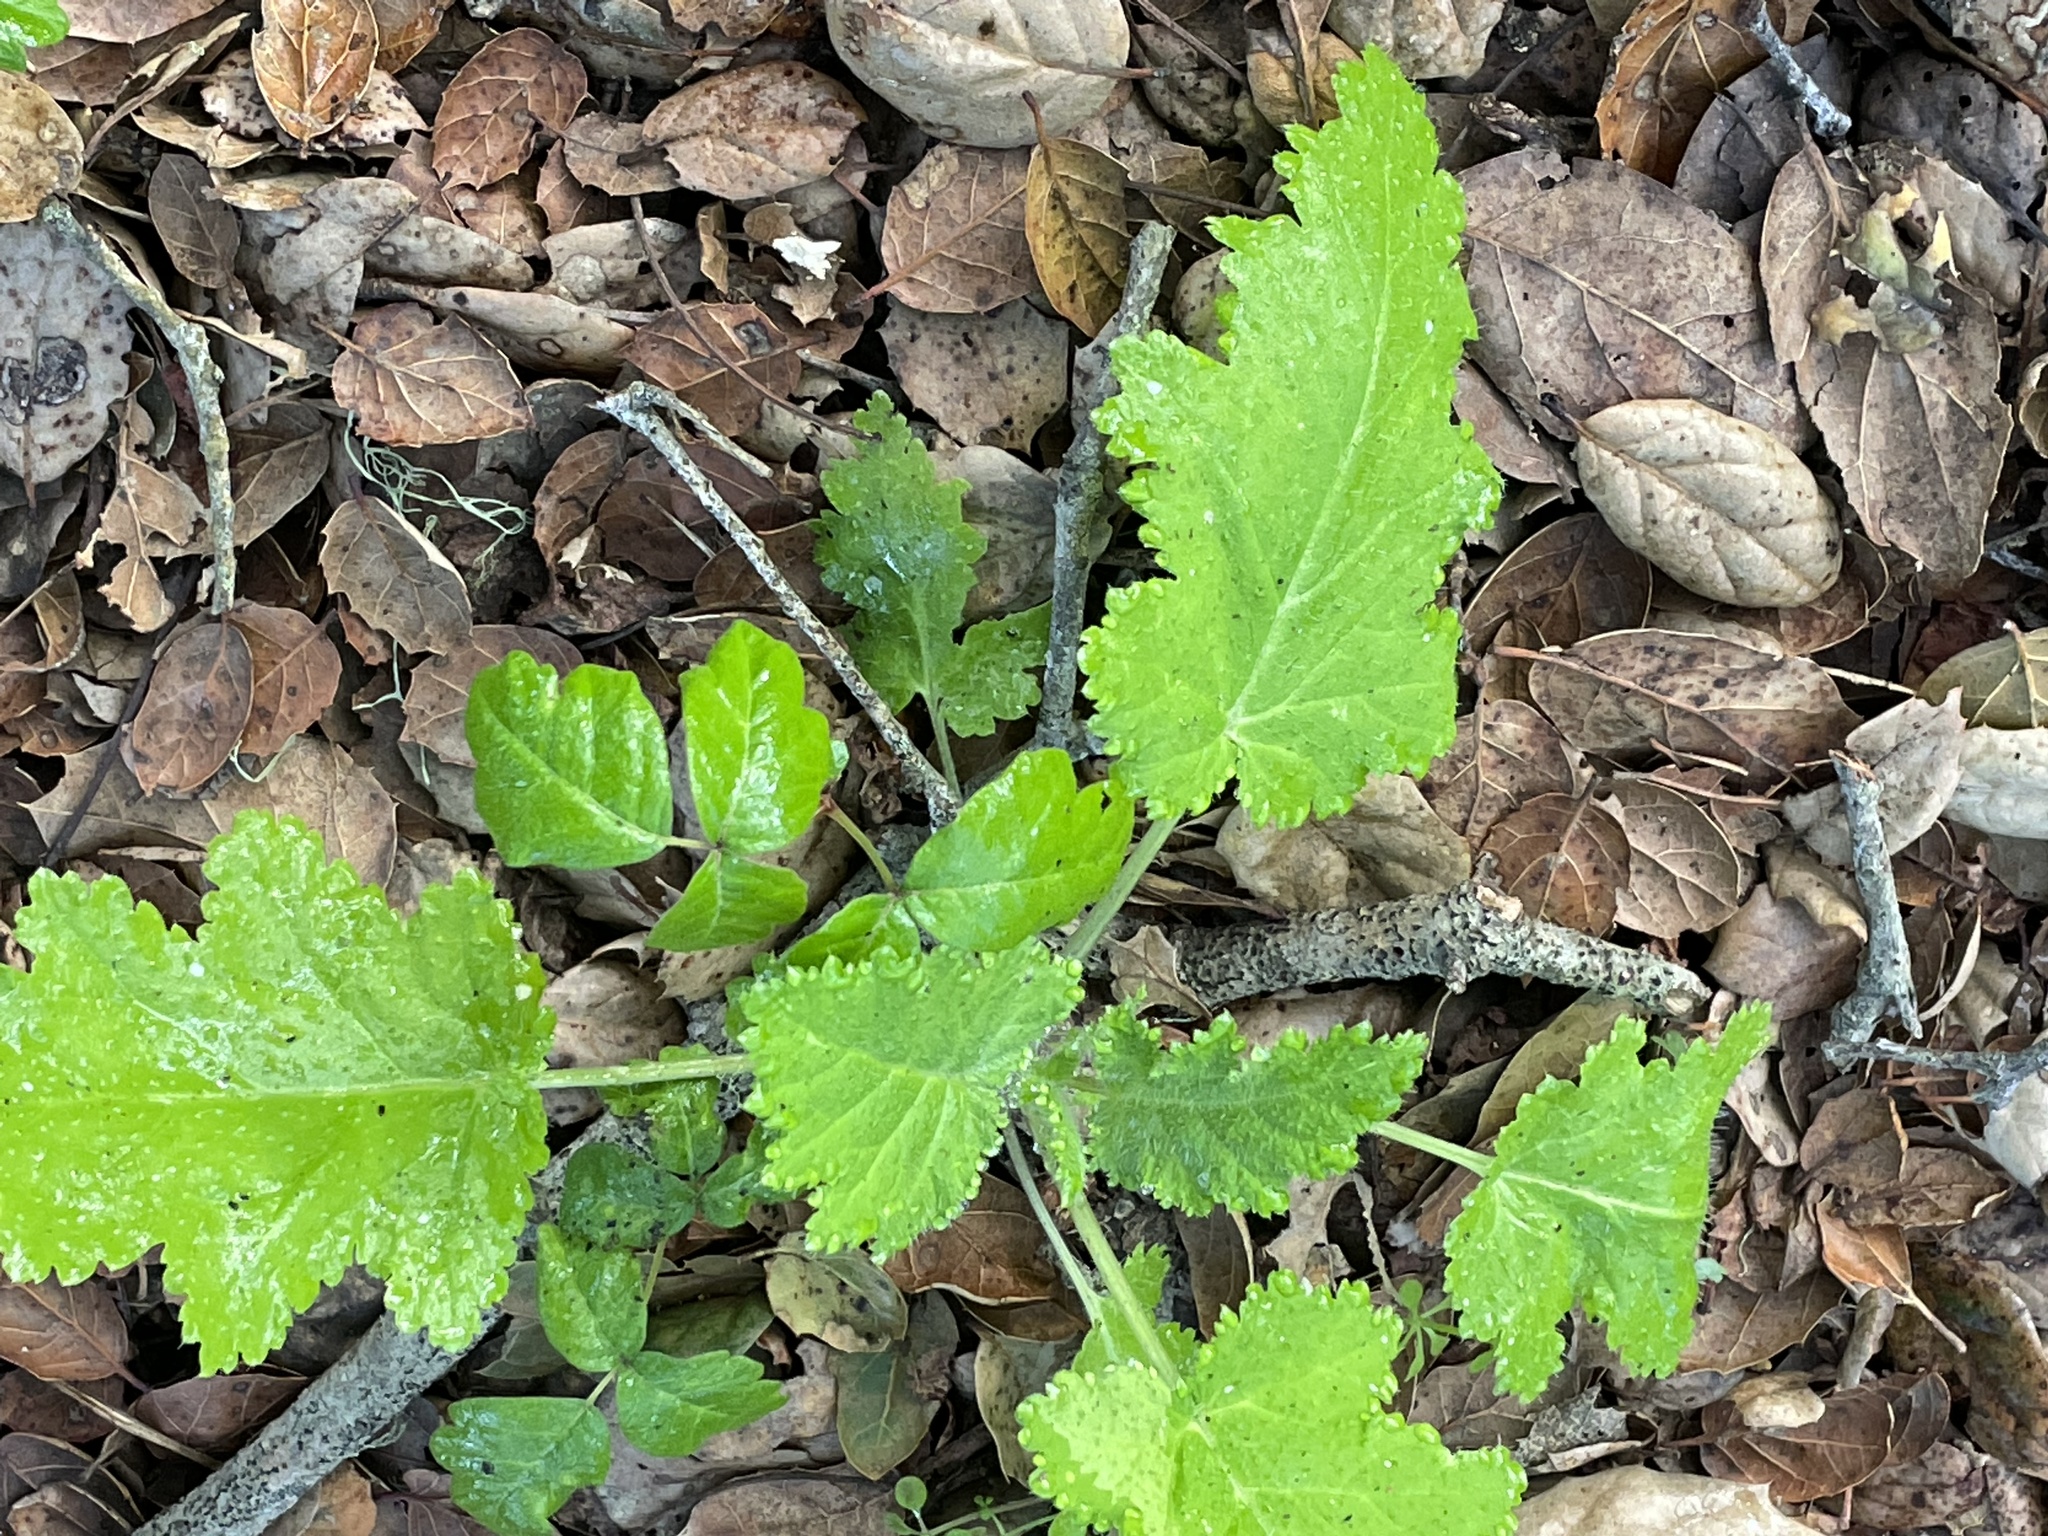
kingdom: Plantae
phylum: Tracheophyta
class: Magnoliopsida
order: Boraginales
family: Hydrophyllaceae
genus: Phacelia
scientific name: Phacelia malvifolia
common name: Mallow-leaf phacelia
